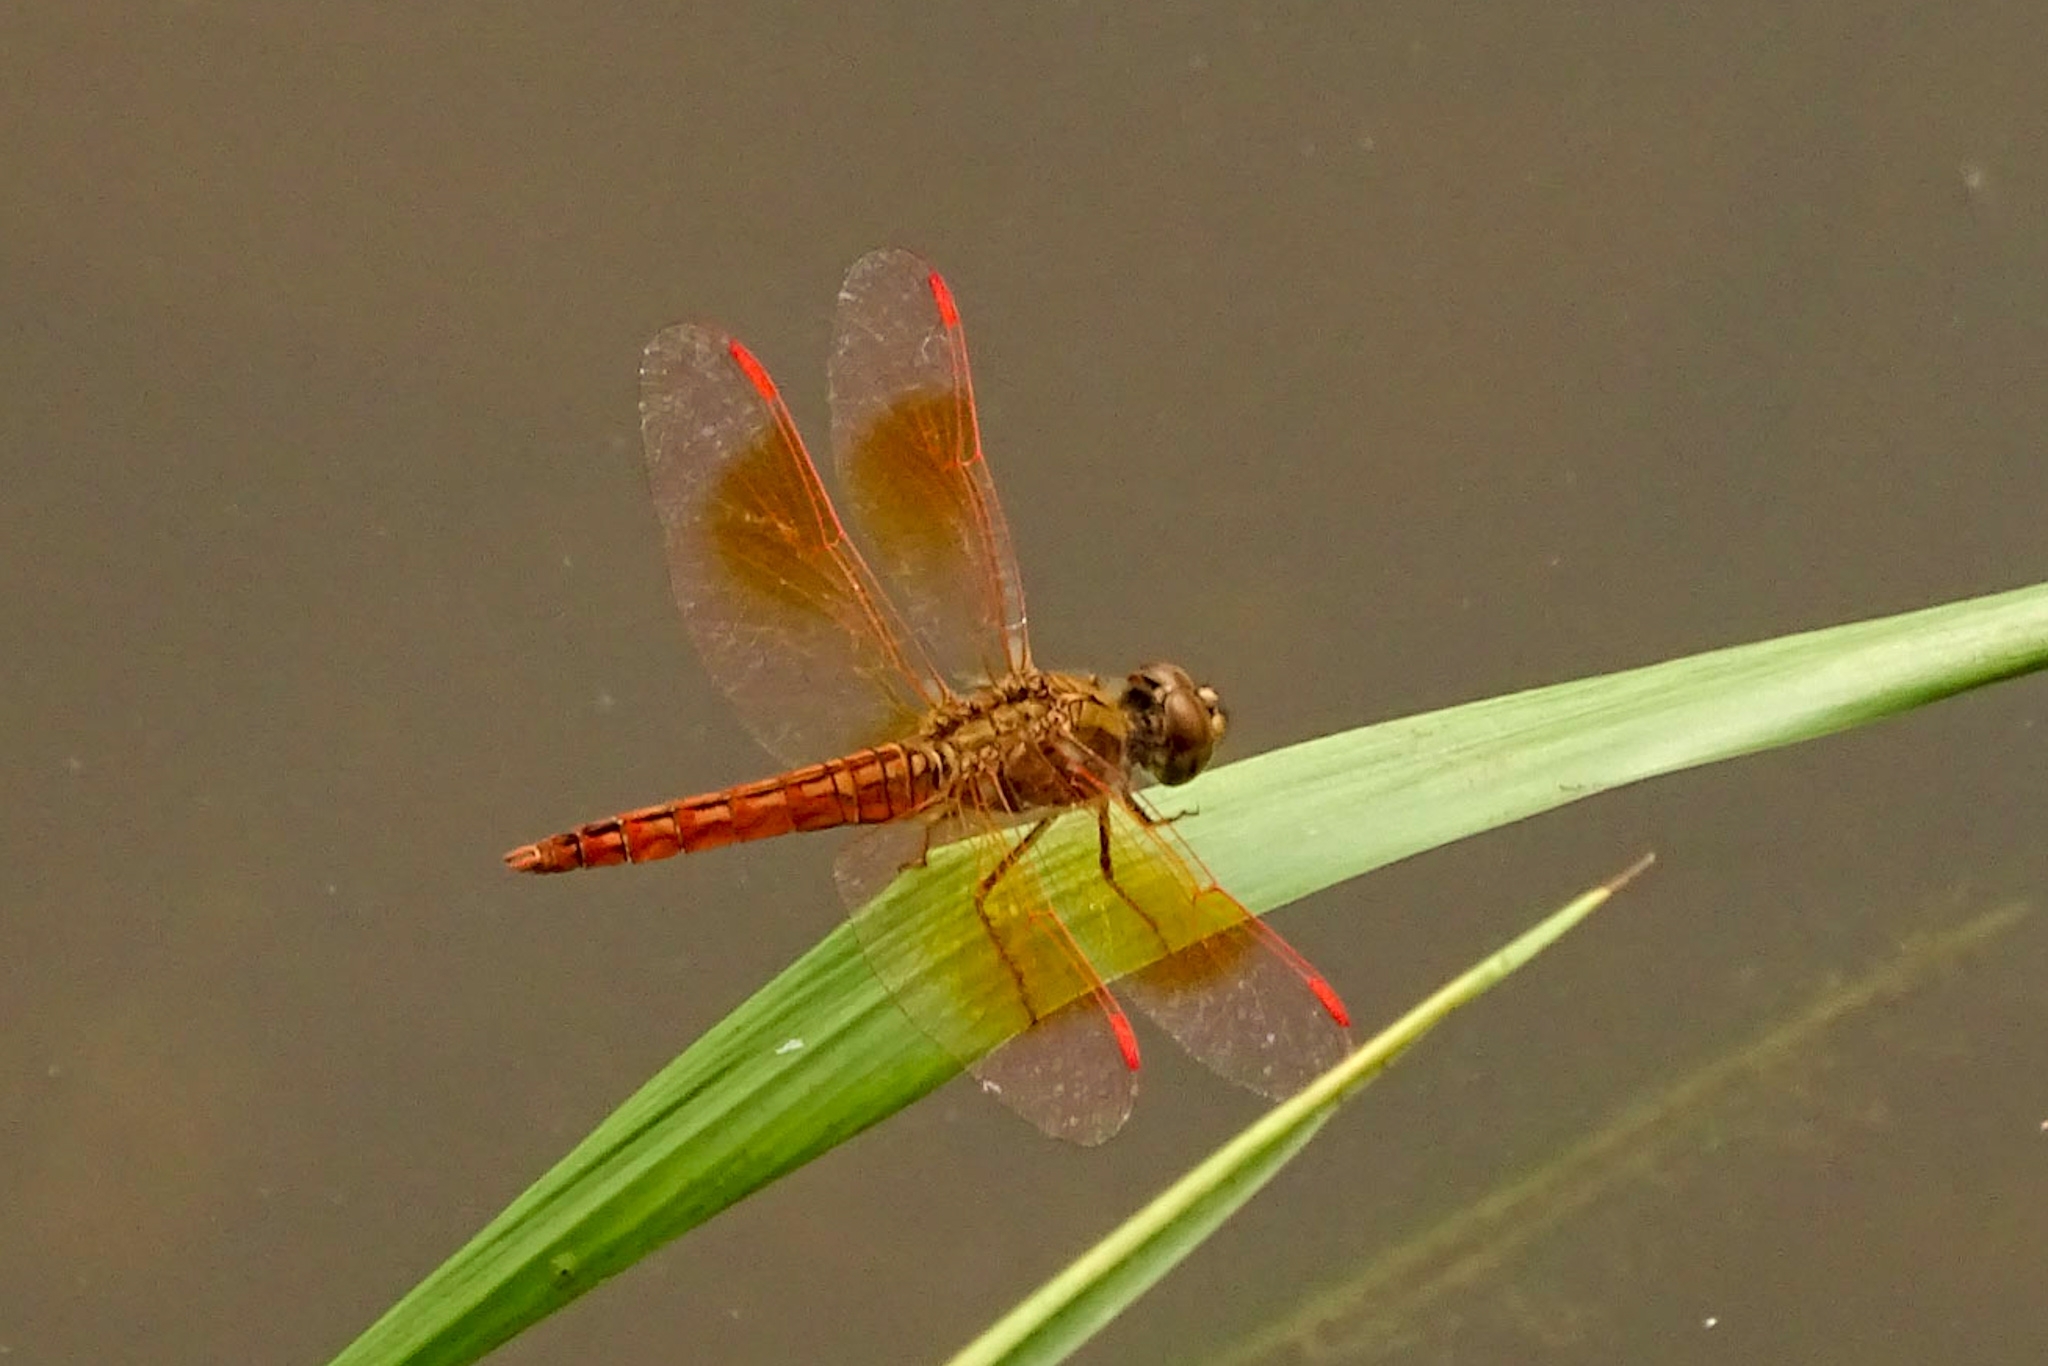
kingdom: Animalia
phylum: Arthropoda
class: Insecta
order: Odonata
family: Libellulidae
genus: Brachythemis
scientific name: Brachythemis contaminata
